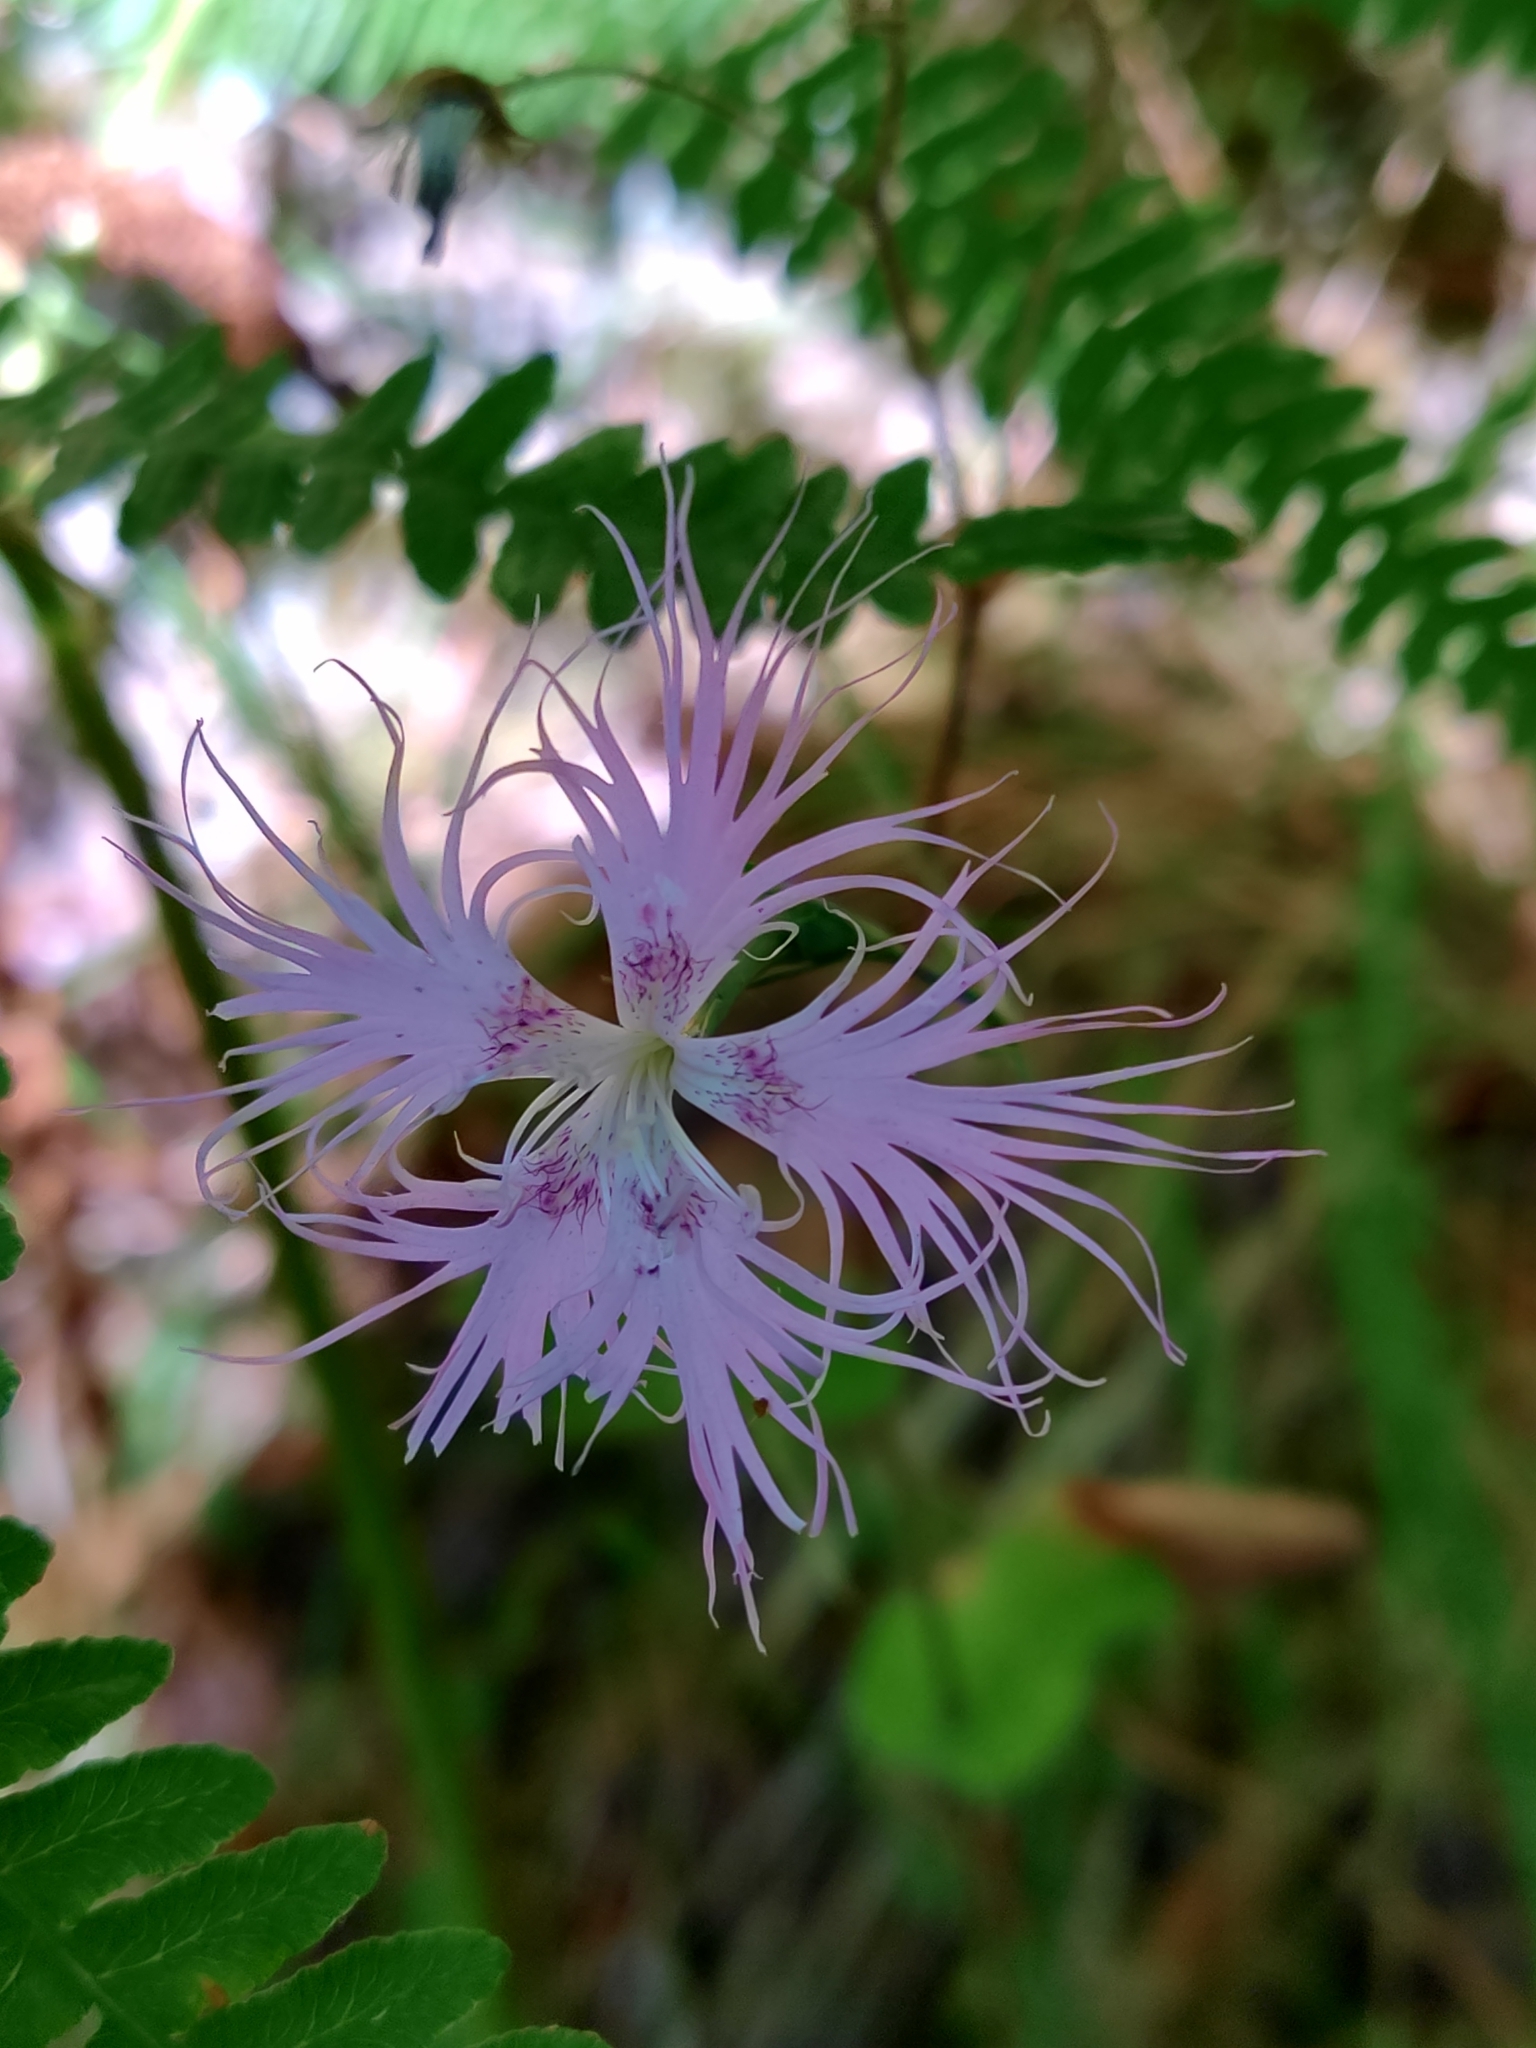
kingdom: Plantae
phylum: Tracheophyta
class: Magnoliopsida
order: Caryophyllales
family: Caryophyllaceae
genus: Dianthus
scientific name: Dianthus hyssopifolius
